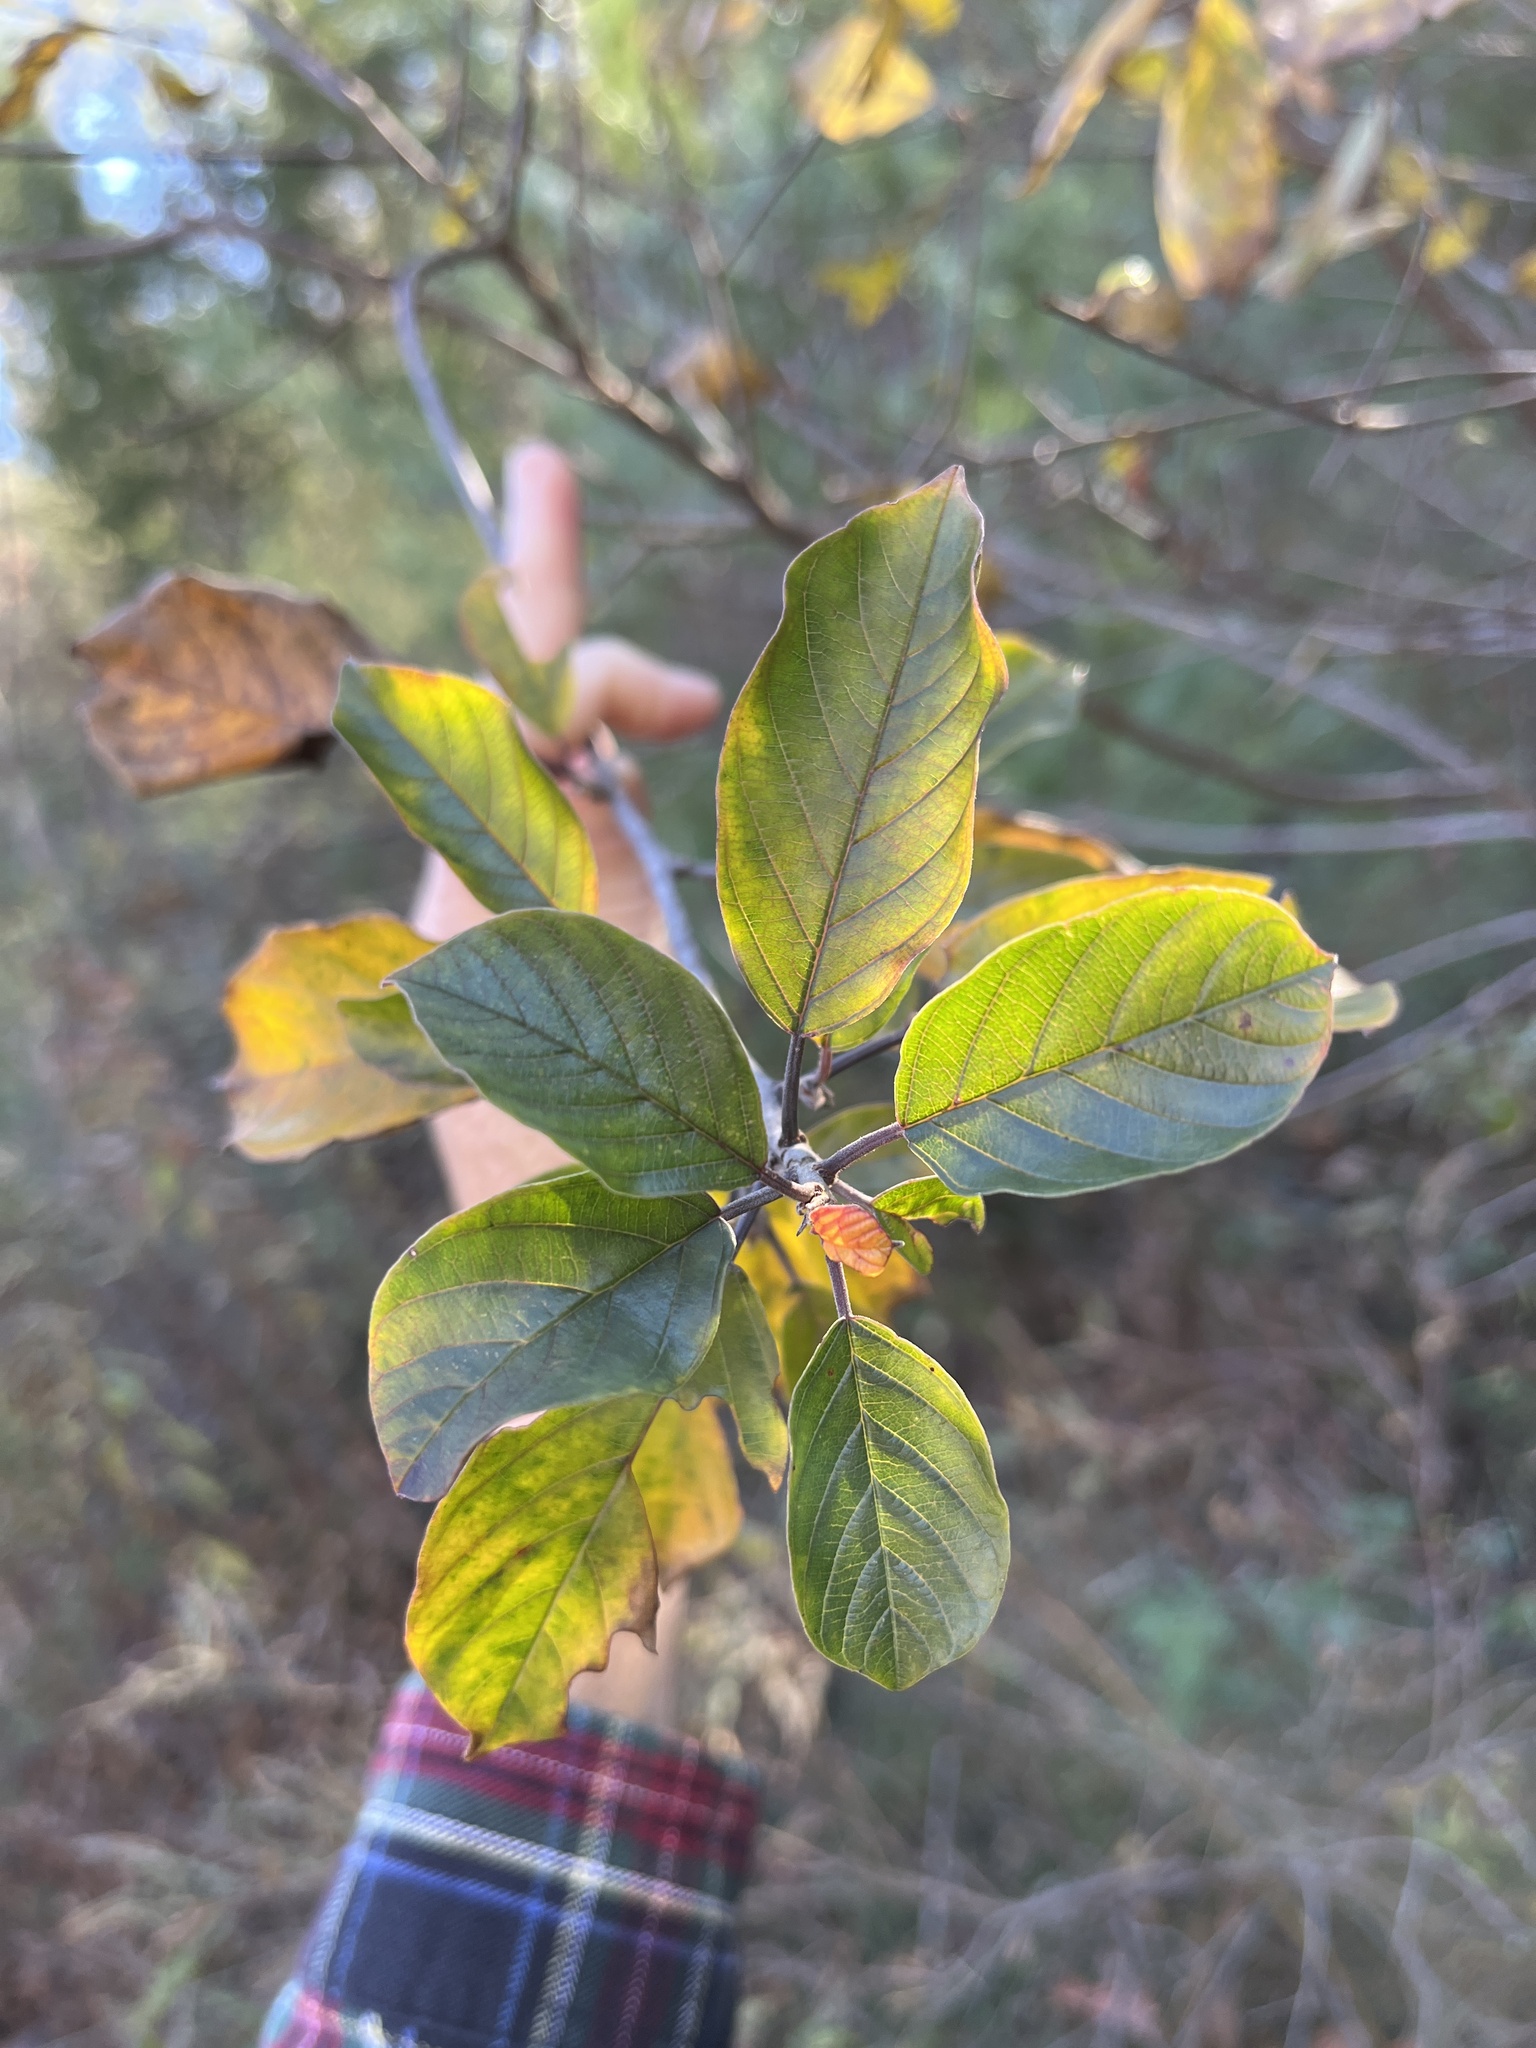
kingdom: Plantae
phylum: Tracheophyta
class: Magnoliopsida
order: Rosales
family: Rhamnaceae
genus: Frangula
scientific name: Frangula alnus
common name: Alder buckthorn
